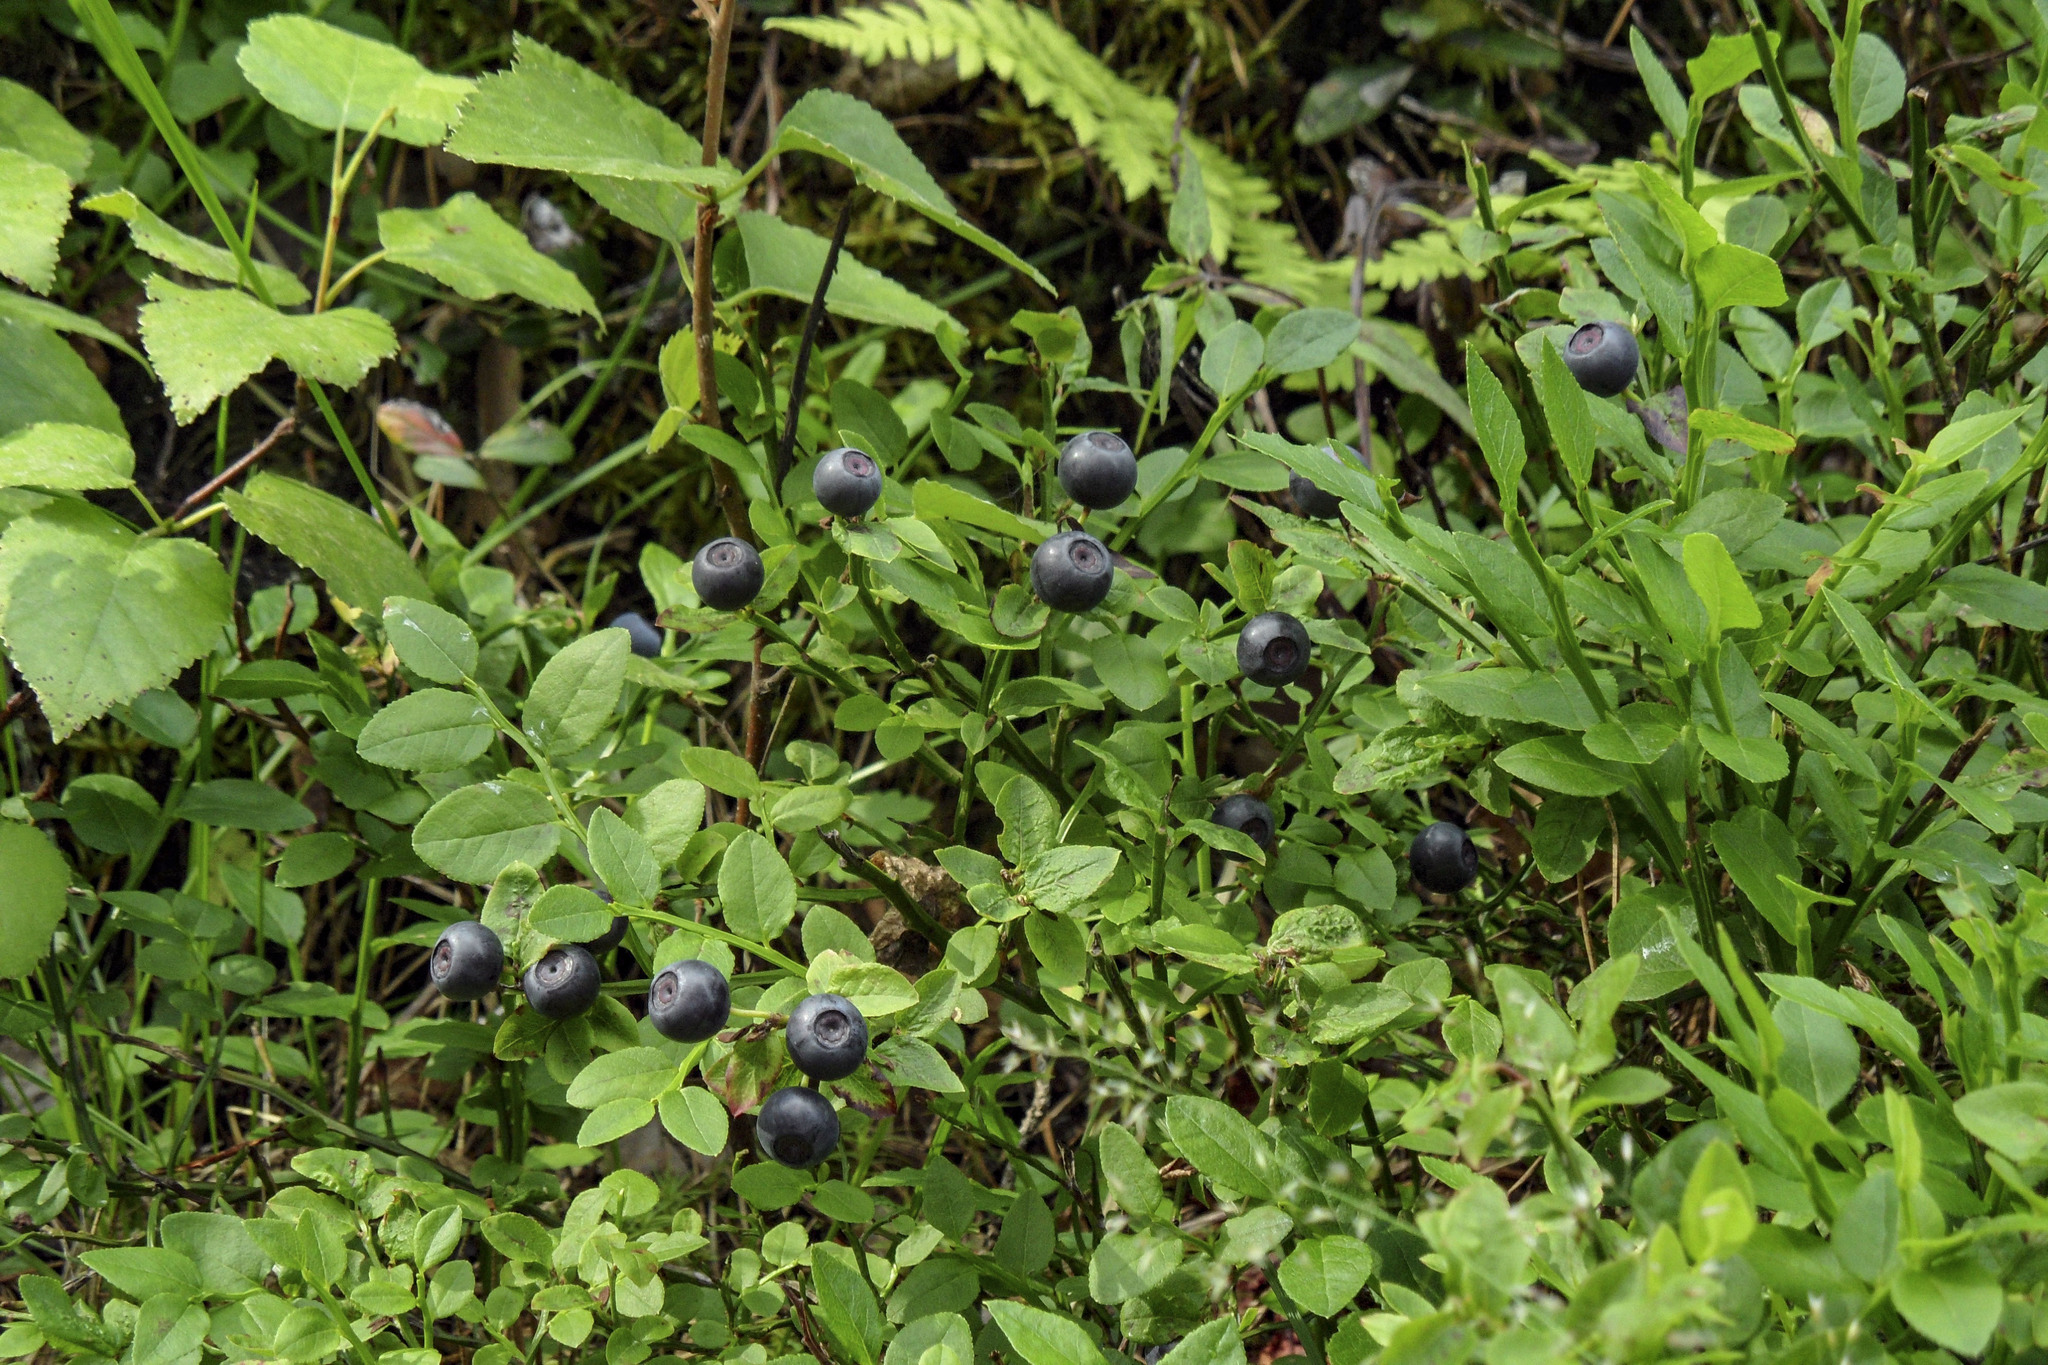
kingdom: Plantae
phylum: Tracheophyta
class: Magnoliopsida
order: Ericales
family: Ericaceae
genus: Vaccinium
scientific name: Vaccinium myrtillus
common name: Bilberry
